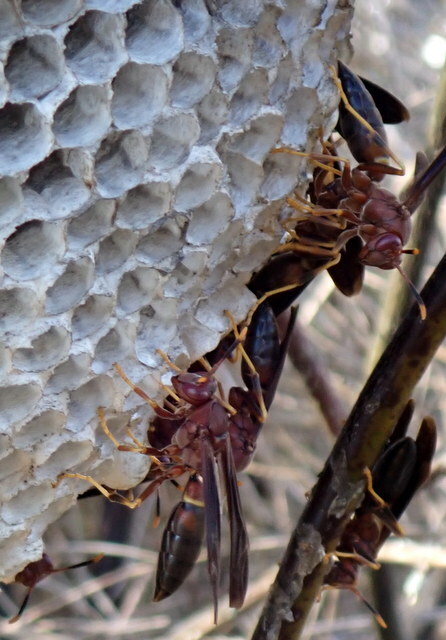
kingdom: Animalia
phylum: Arthropoda
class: Insecta
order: Hymenoptera
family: Eumenidae
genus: Polistes
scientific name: Polistes annularis
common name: Ringed paper wasp
